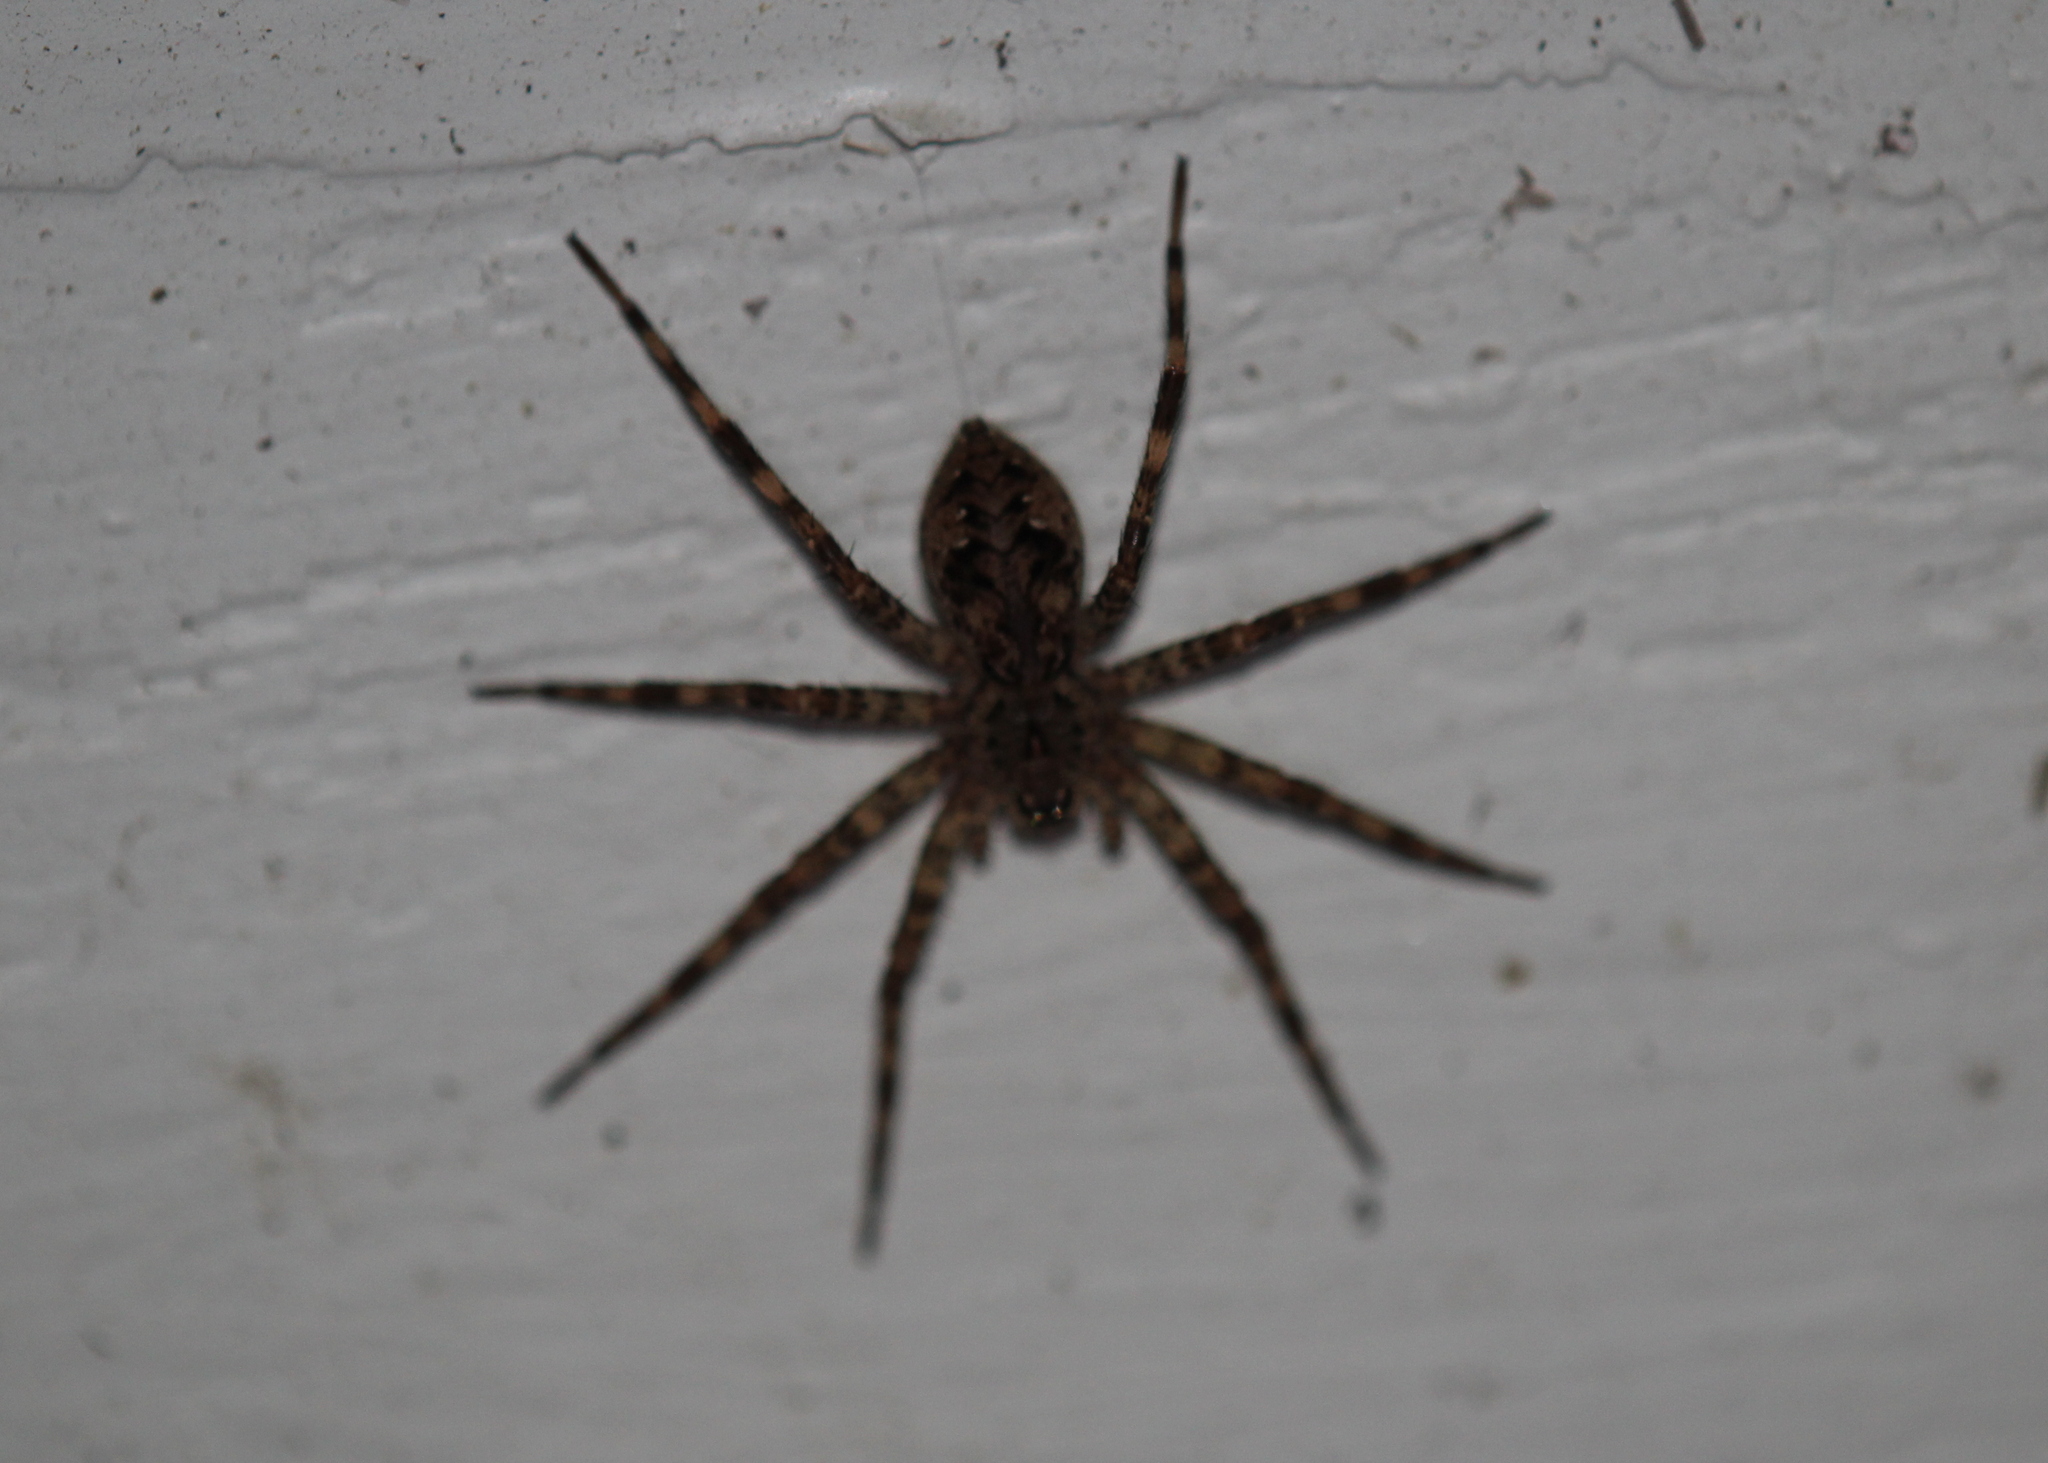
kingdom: Animalia
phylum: Arthropoda
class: Arachnida
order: Araneae
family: Pisauridae
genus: Dolomedes
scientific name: Dolomedes tenebrosus
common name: Dark fishing spider
